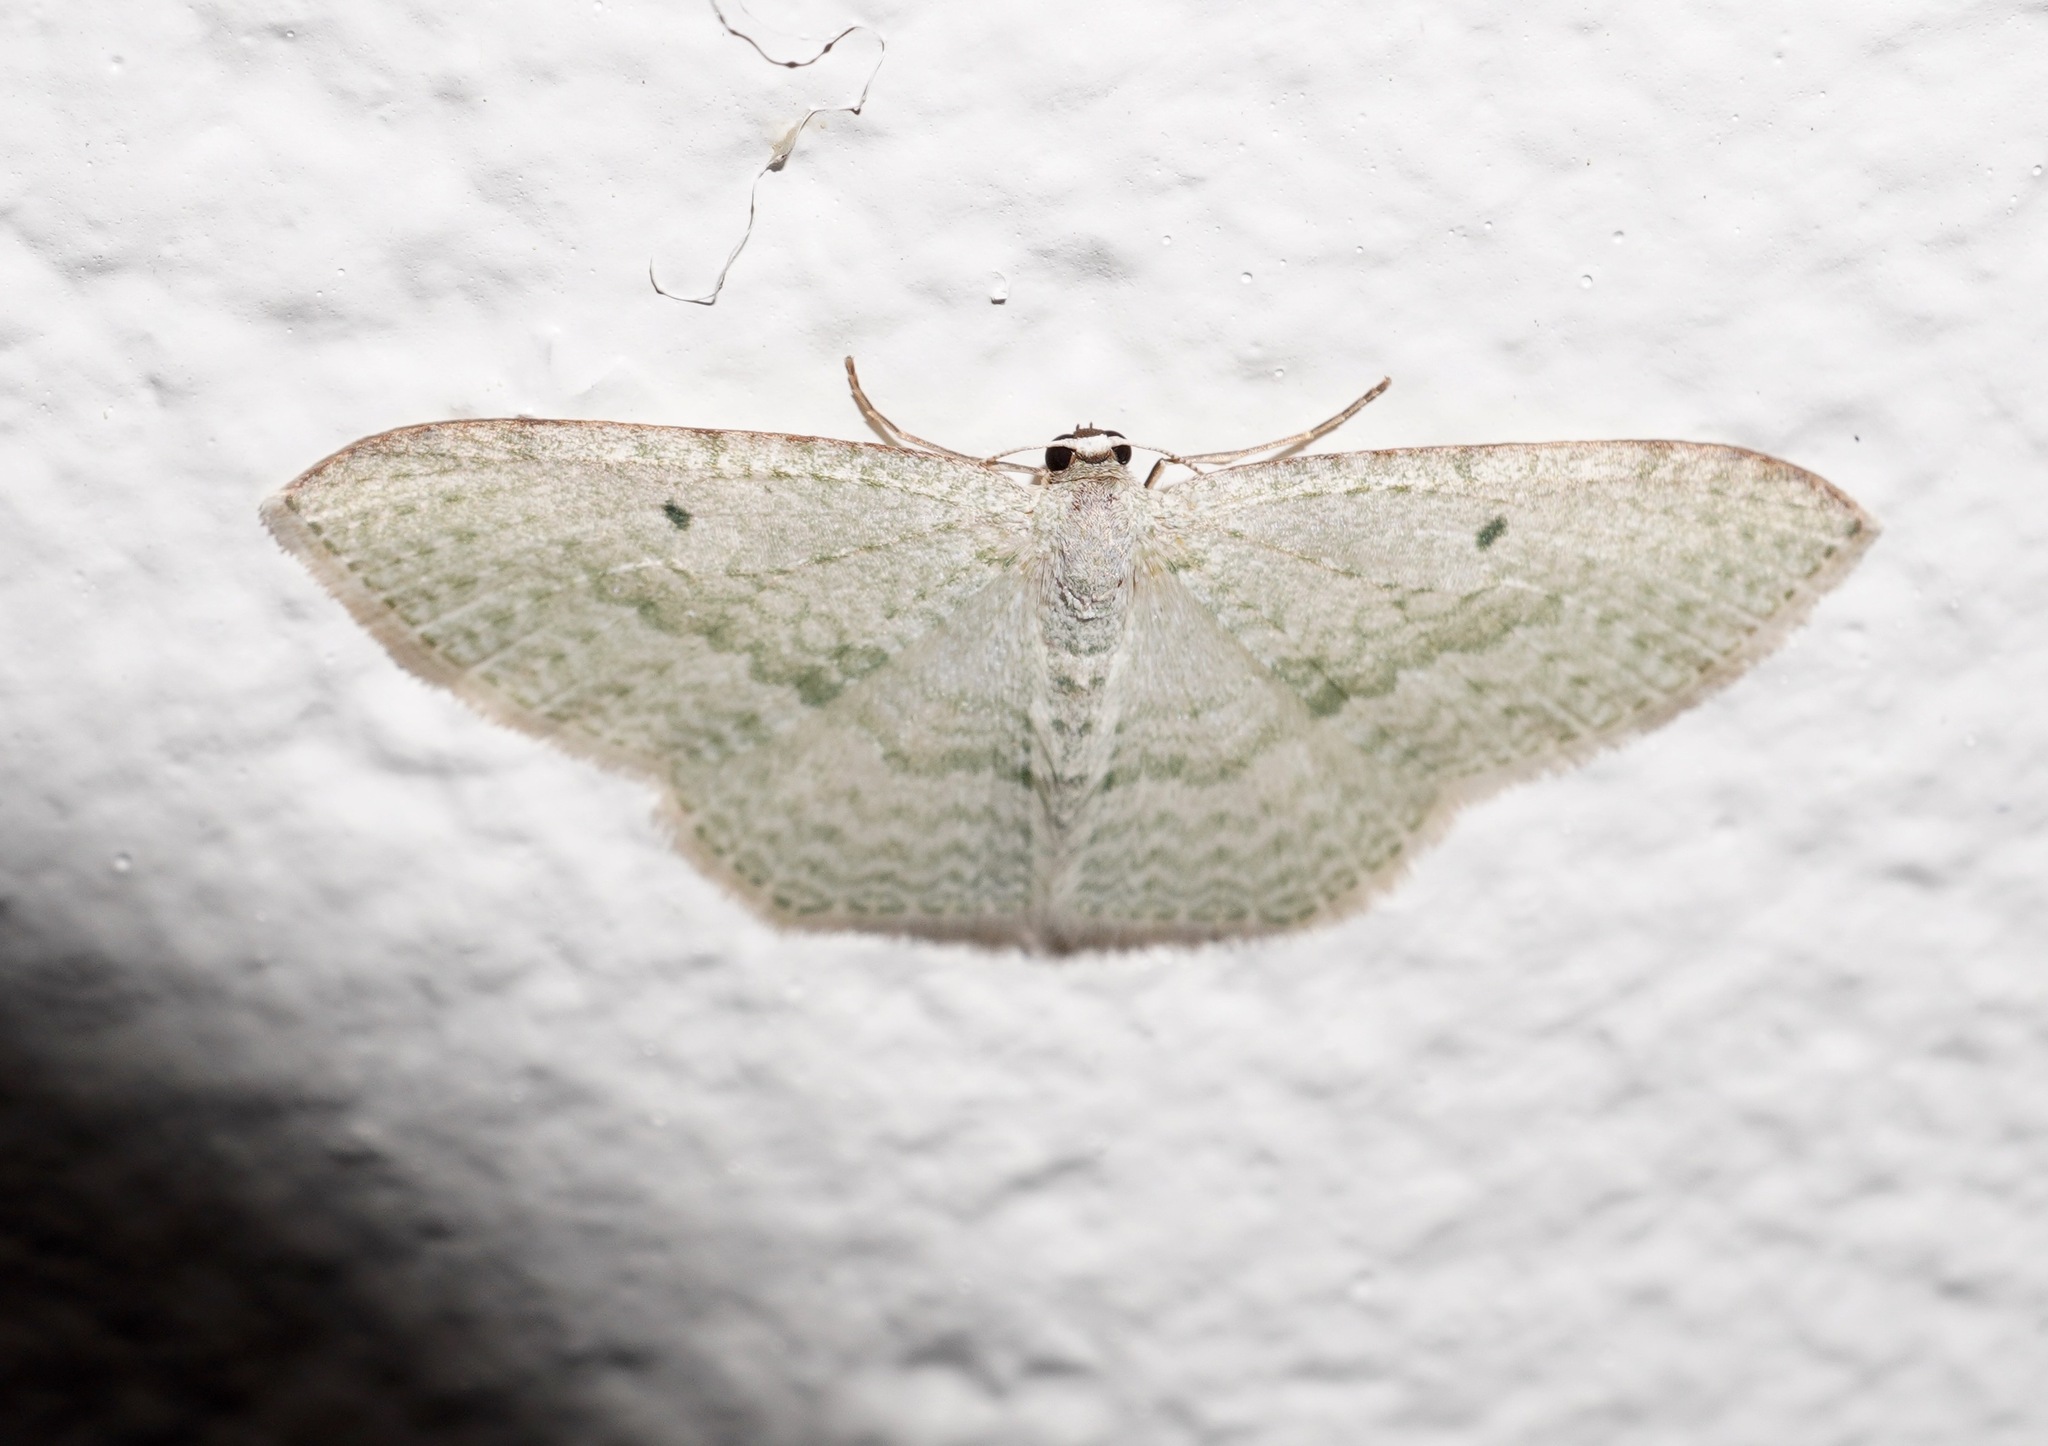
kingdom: Animalia
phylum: Arthropoda
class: Insecta
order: Lepidoptera
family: Geometridae
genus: Poecilasthena
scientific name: Poecilasthena pulchraria
